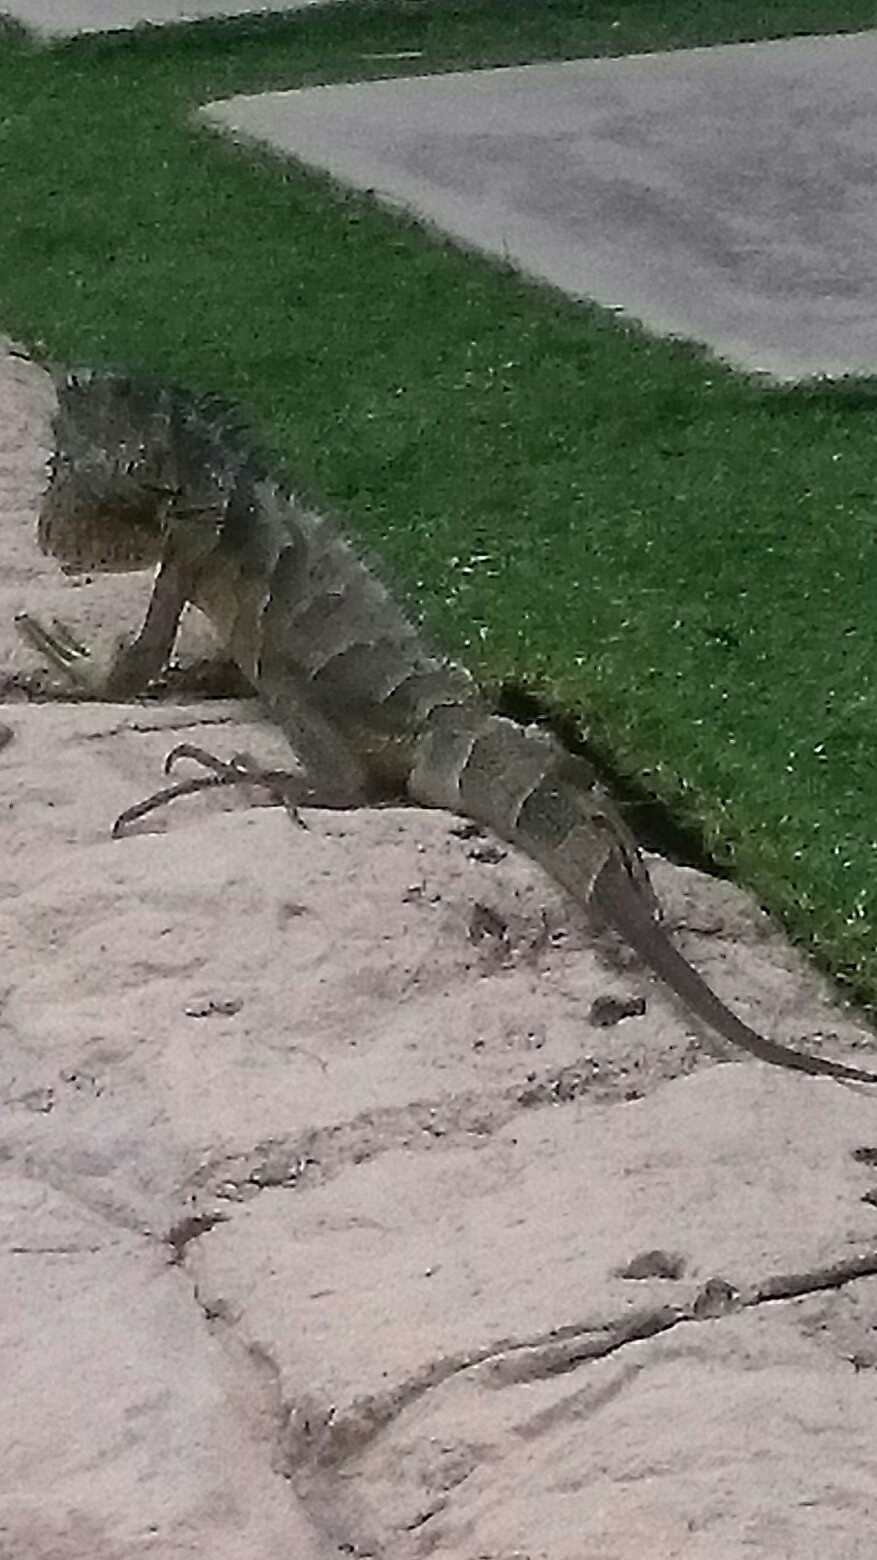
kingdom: Animalia
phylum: Chordata
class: Squamata
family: Iguanidae
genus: Iguana
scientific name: Iguana iguana
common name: Green iguana
